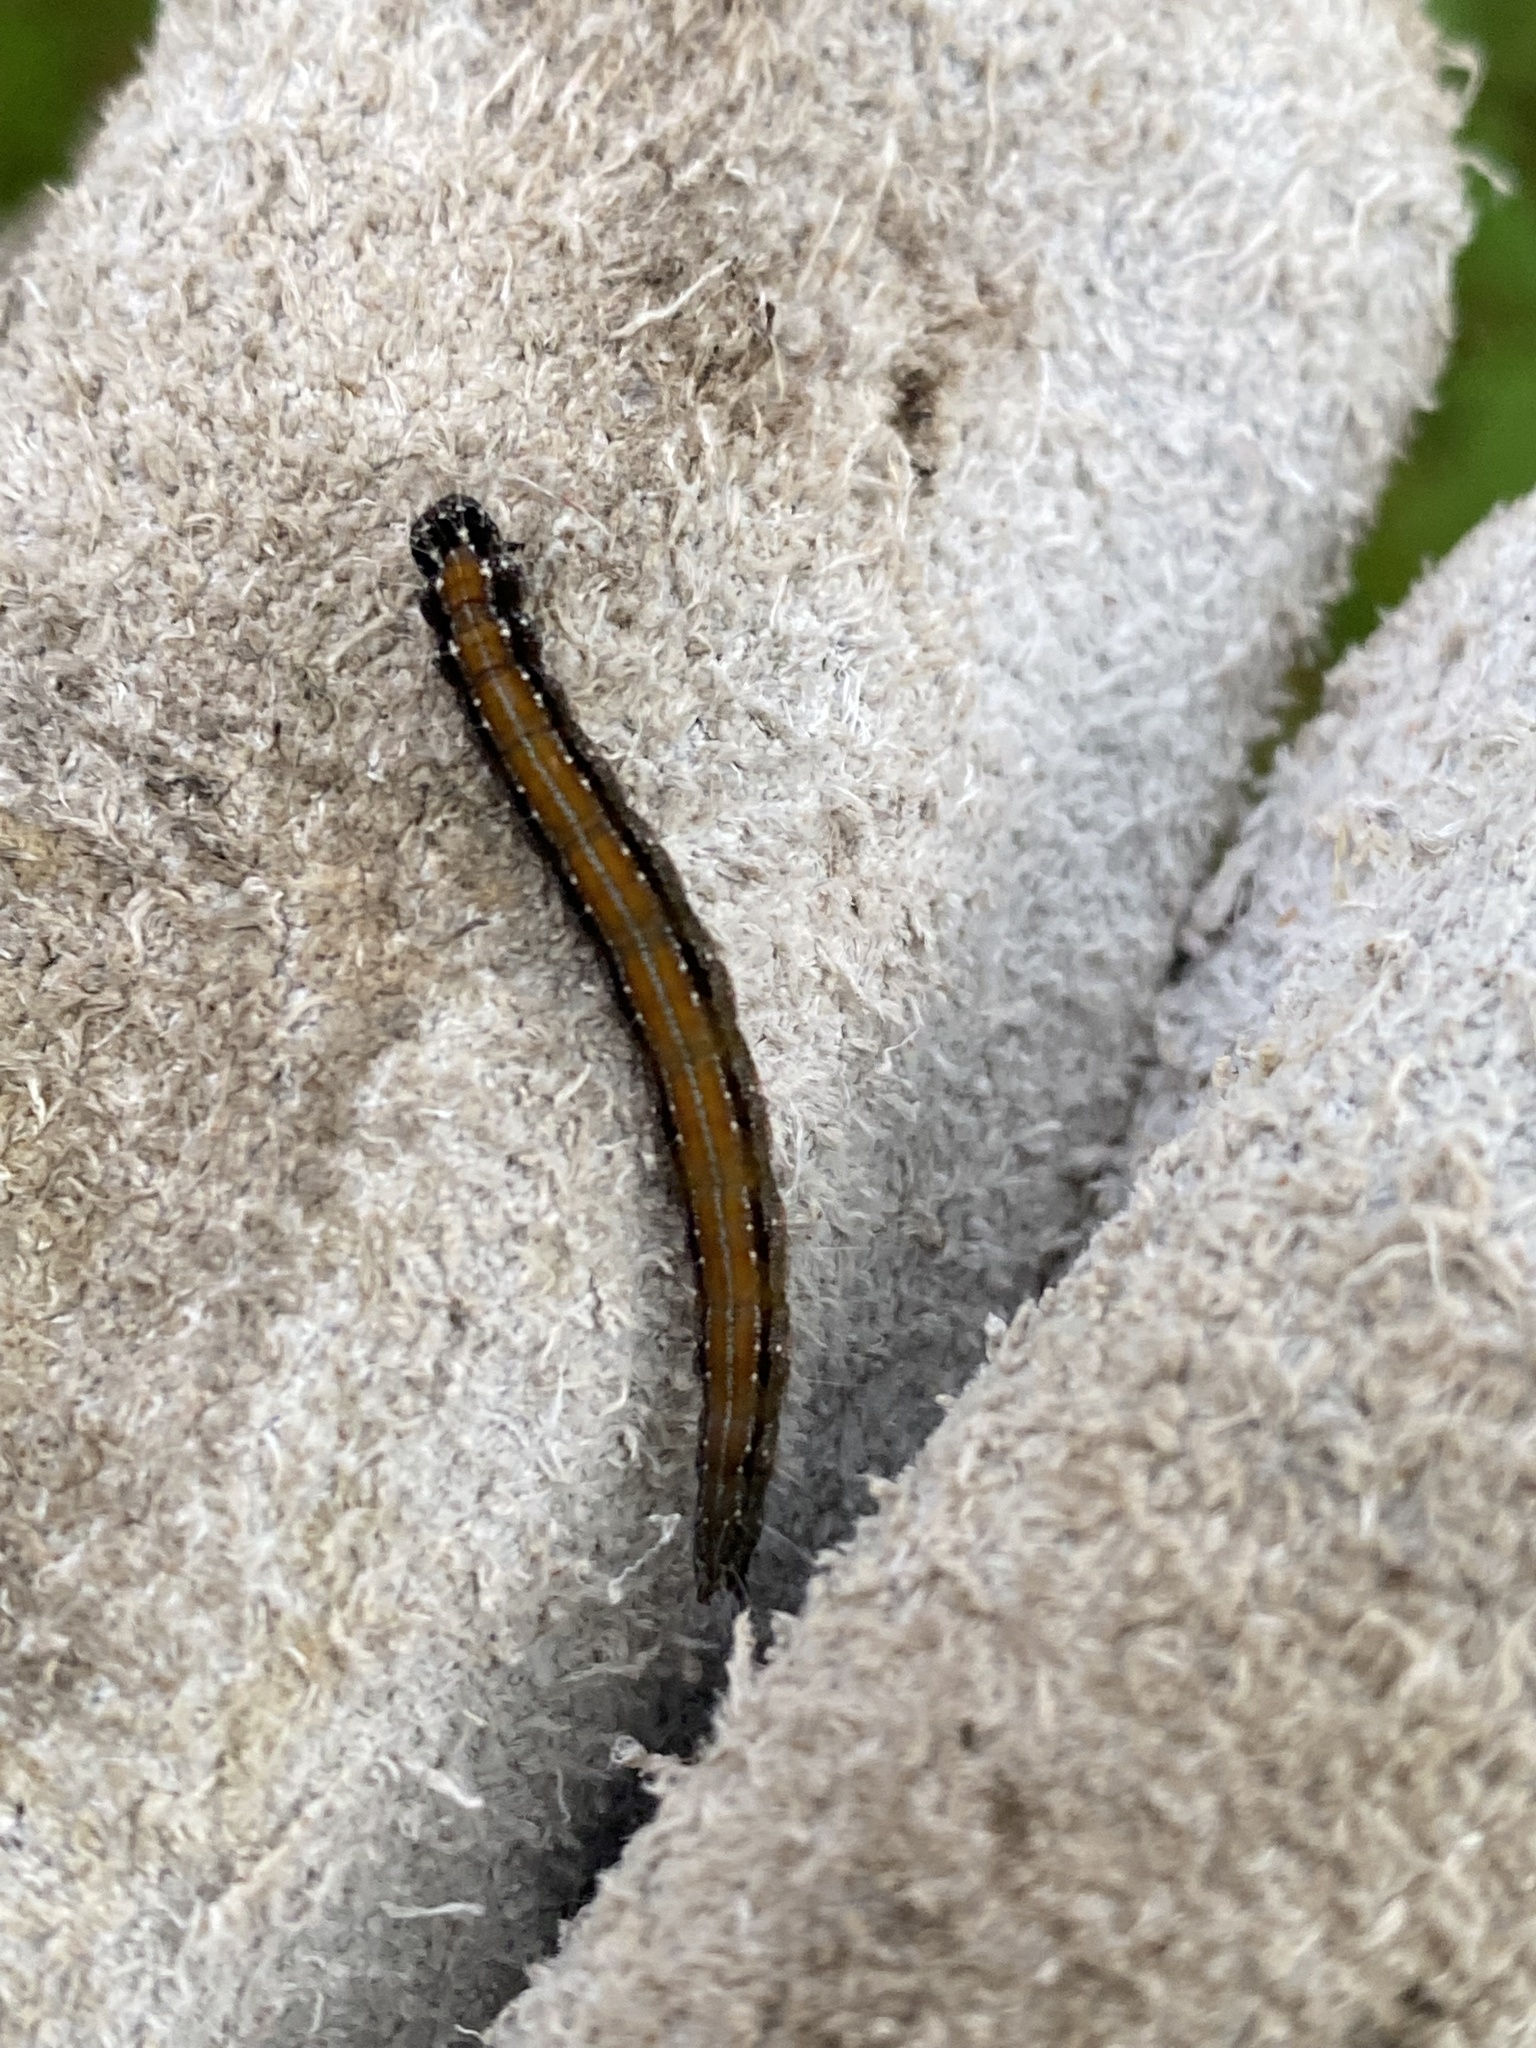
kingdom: Animalia
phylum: Arthropoda
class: Insecta
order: Lepidoptera
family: Attevidae
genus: Atteva
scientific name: Atteva punctella
